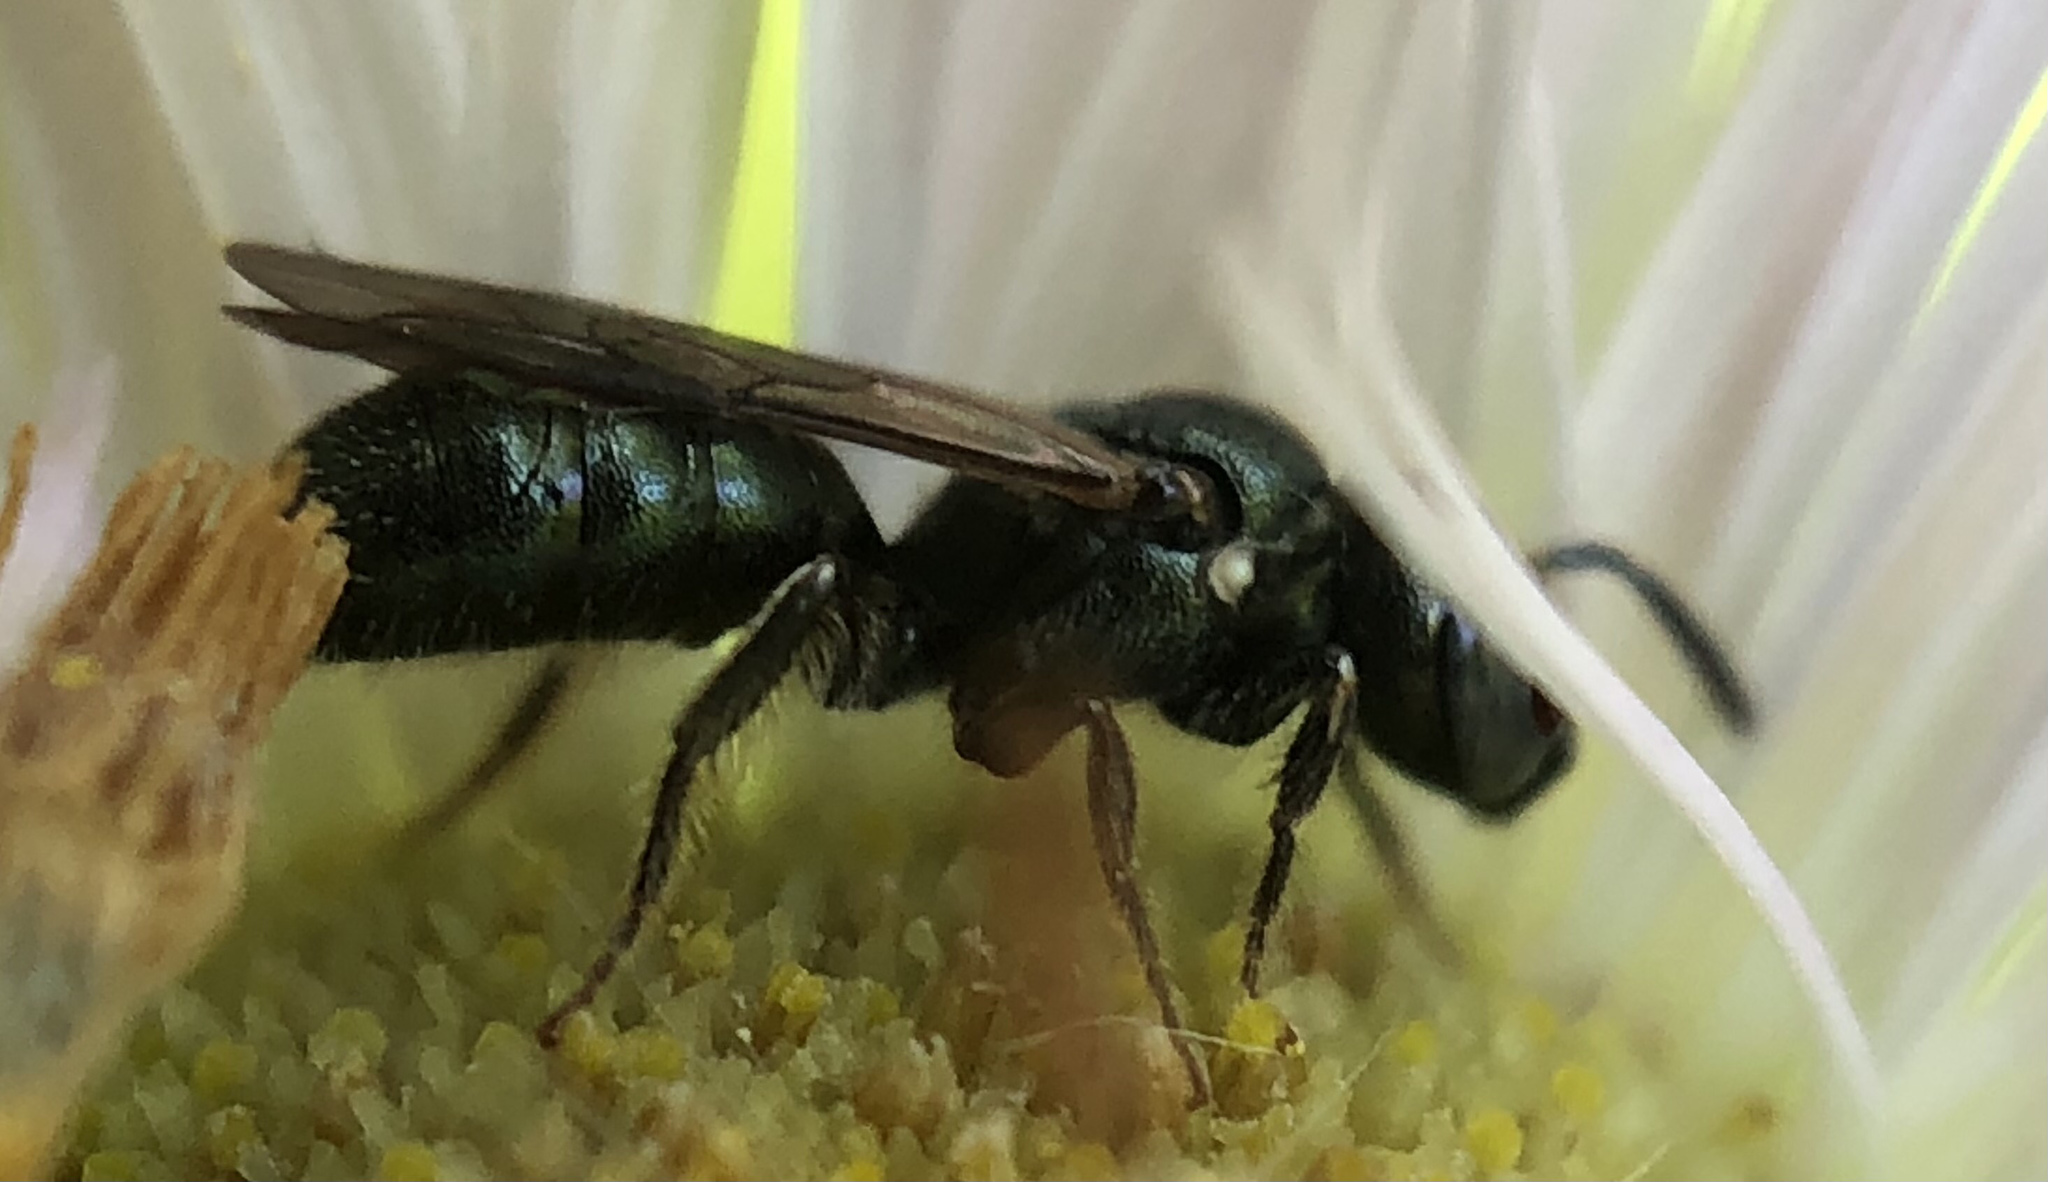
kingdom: Animalia
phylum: Arthropoda
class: Insecta
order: Hymenoptera
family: Apidae
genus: Ceratina
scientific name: Ceratina strenua
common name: Nimble carpenter bee
